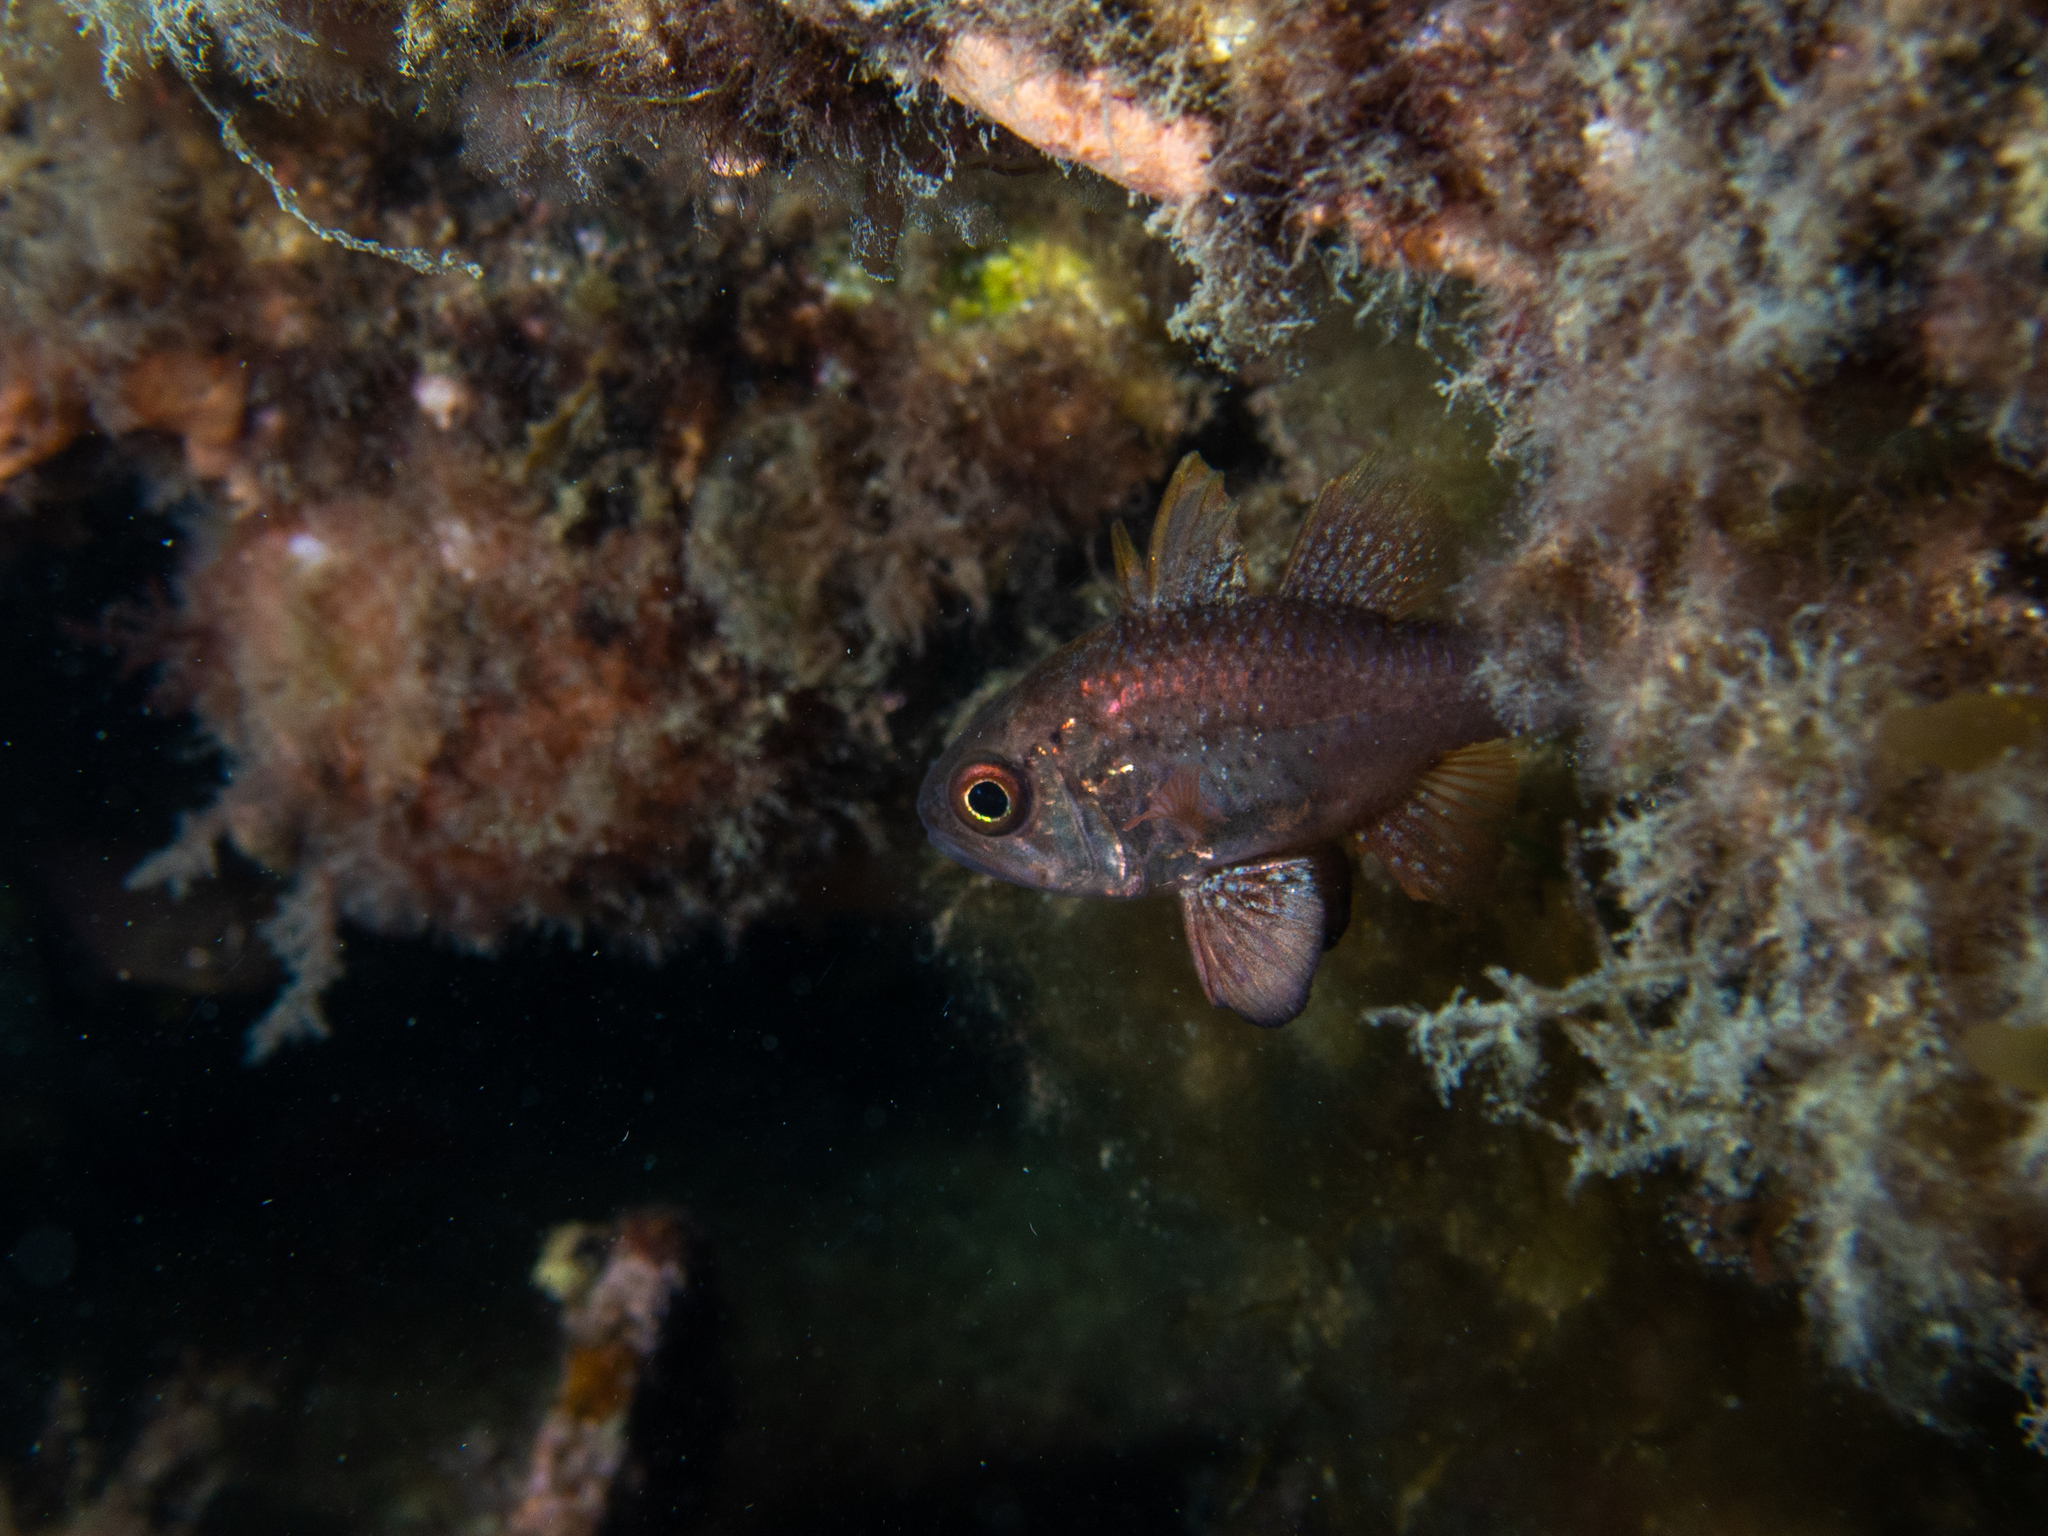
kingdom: Animalia
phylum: Chordata
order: Perciformes
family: Apogonidae
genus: Vincentia
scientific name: Vincentia conspersa
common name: Orange cardinalfish
